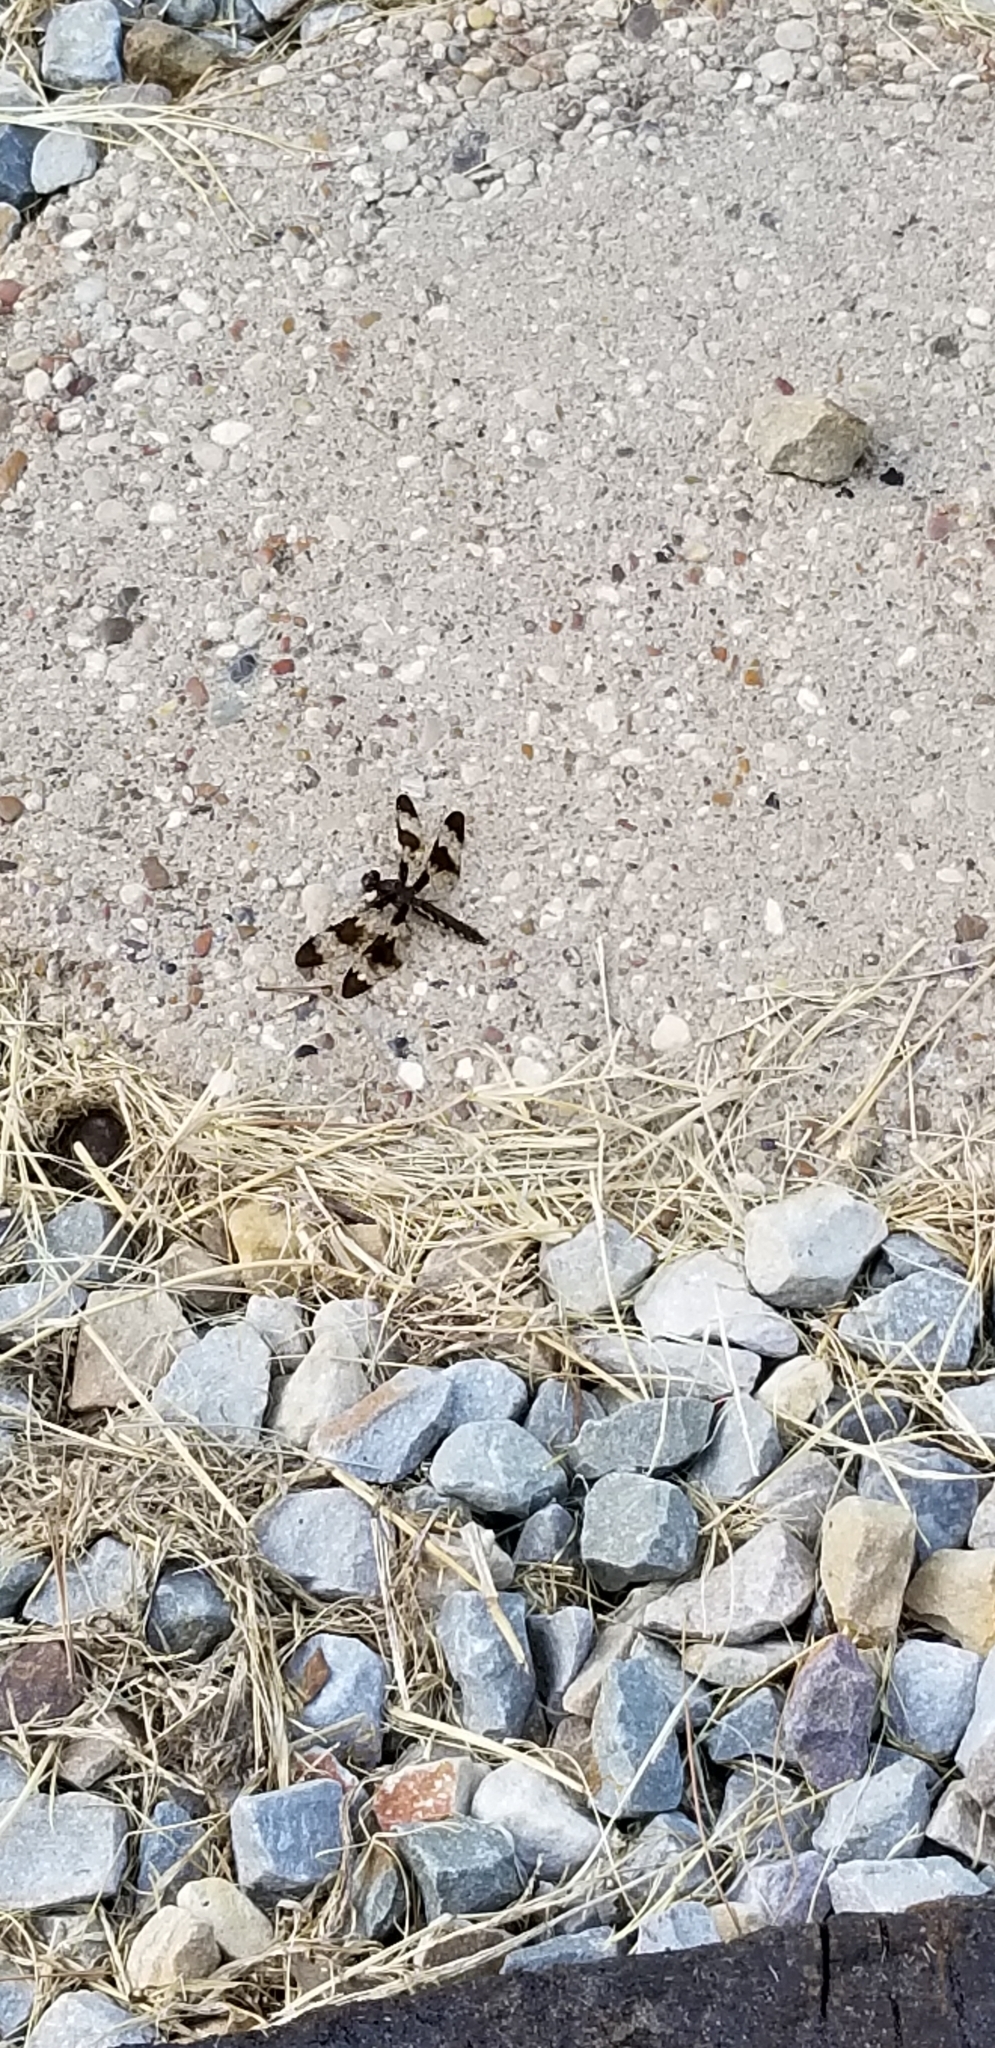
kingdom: Animalia
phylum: Arthropoda
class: Insecta
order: Odonata
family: Libellulidae
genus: Plathemis
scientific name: Plathemis lydia
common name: Common whitetail
